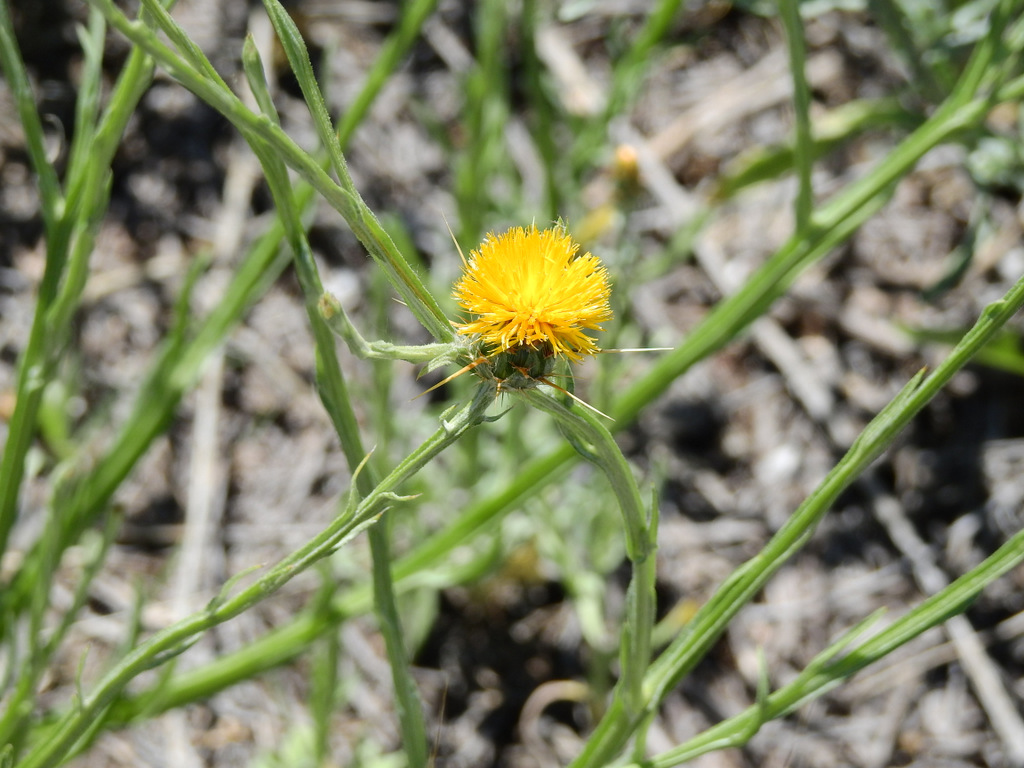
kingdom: Plantae
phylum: Tracheophyta
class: Magnoliopsida
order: Asterales
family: Asteraceae
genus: Centaurea
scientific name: Centaurea solstitialis
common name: Yellow star-thistle
